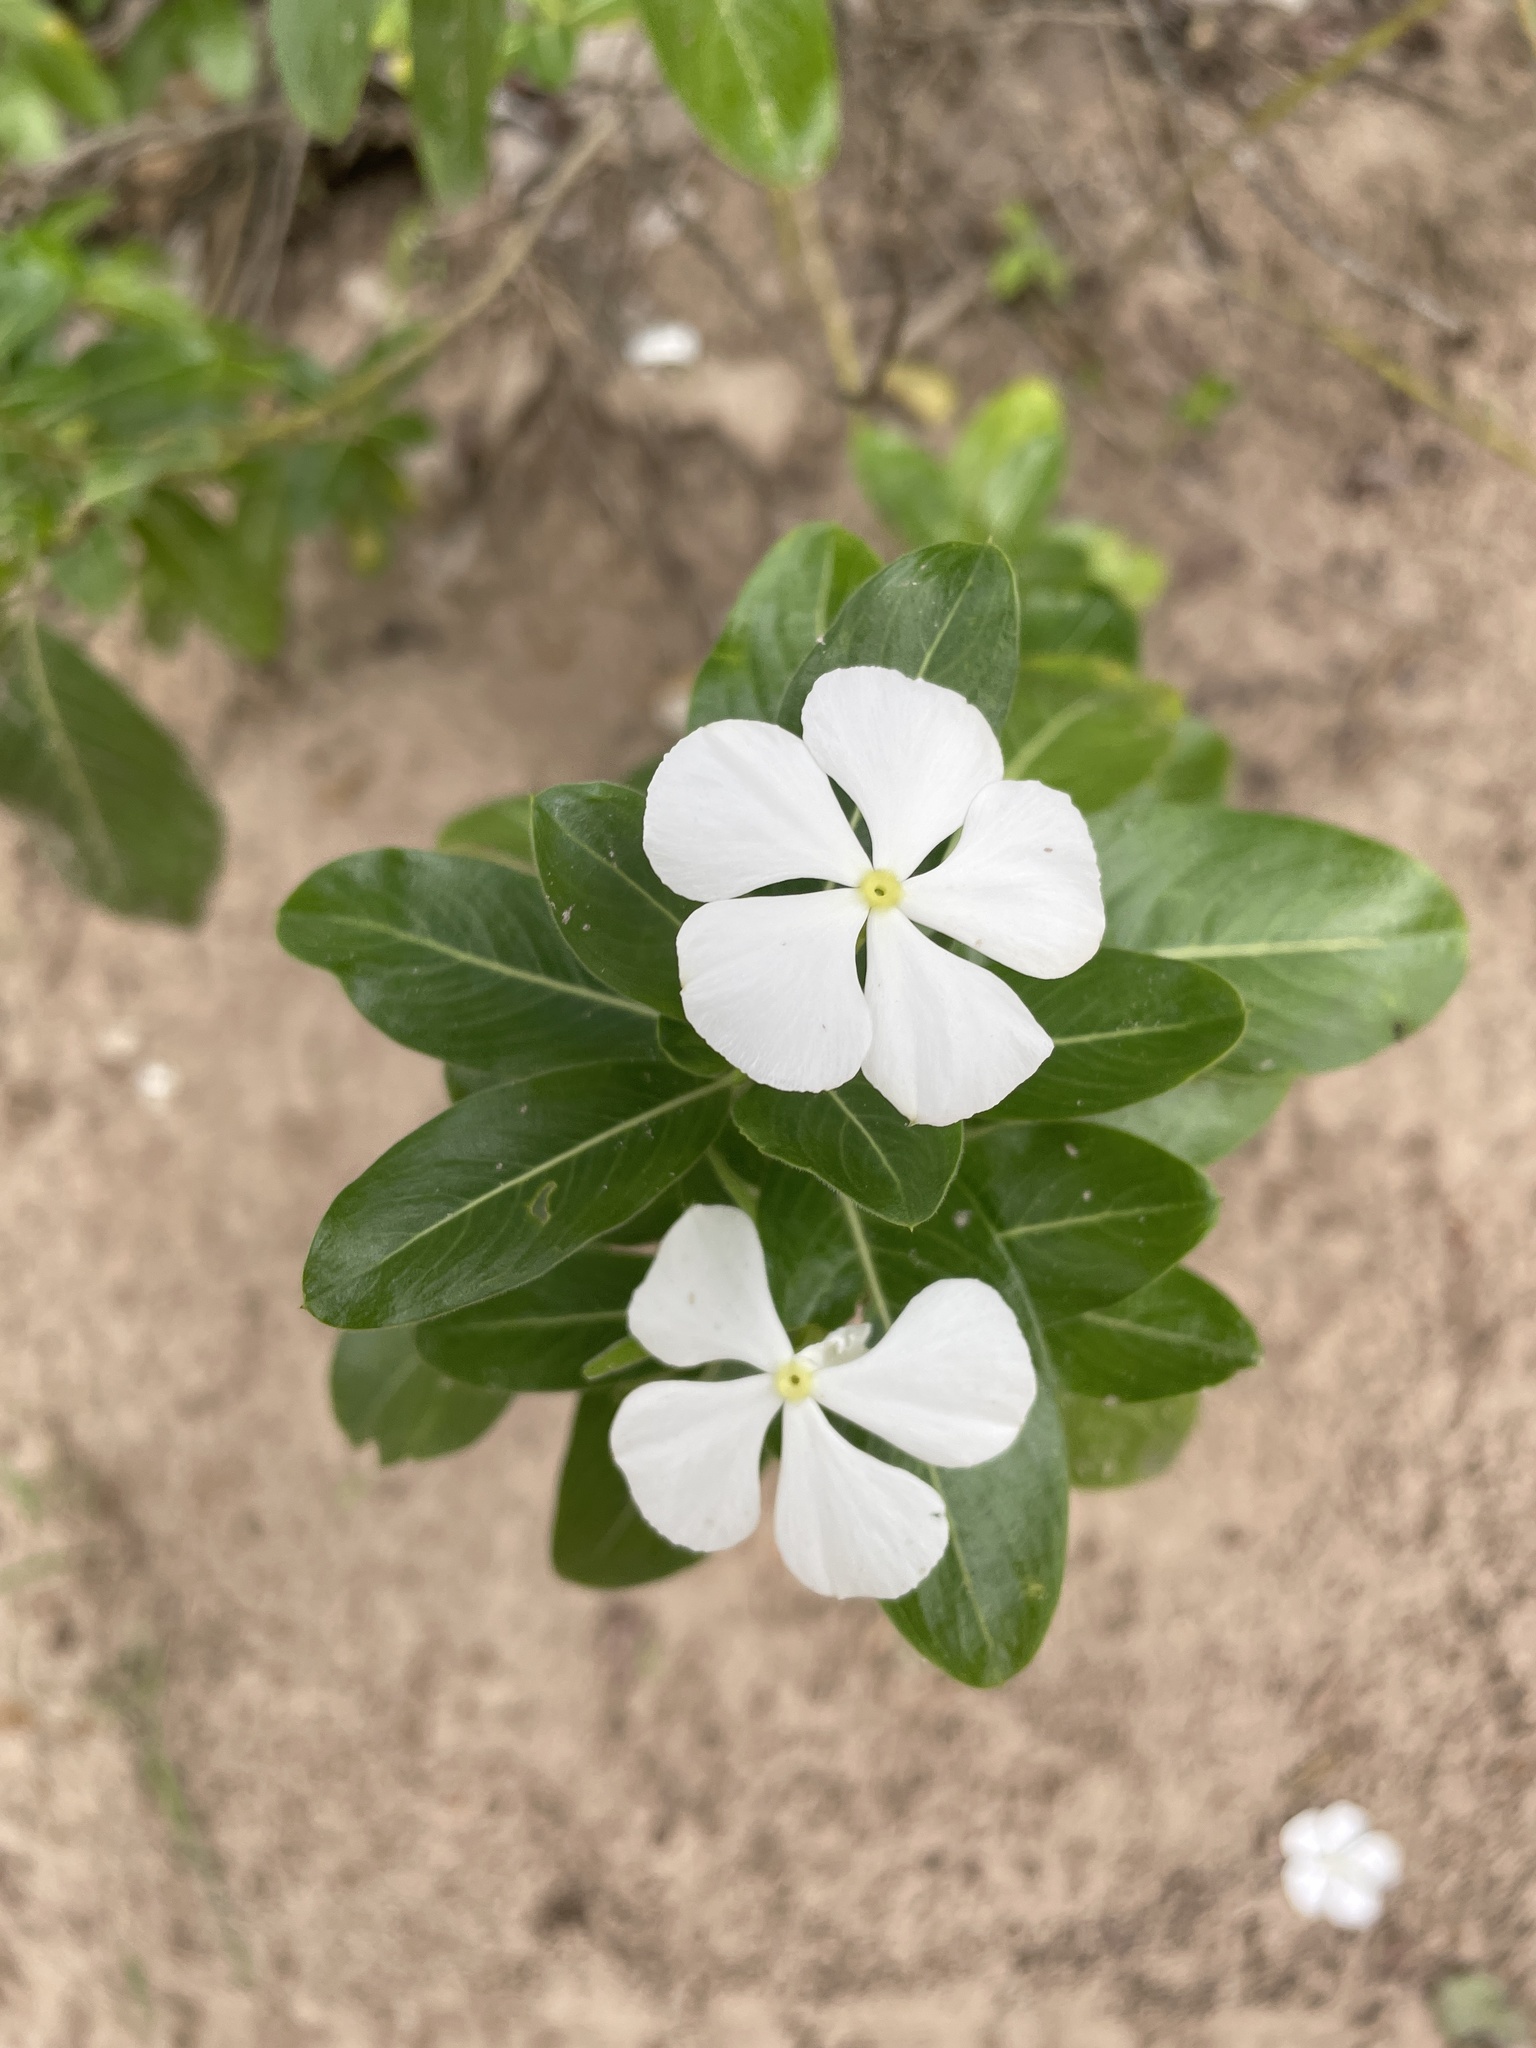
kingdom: Plantae
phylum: Tracheophyta
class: Magnoliopsida
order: Gentianales
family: Apocynaceae
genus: Catharanthus
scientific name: Catharanthus roseus
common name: Madagascar periwinkle
